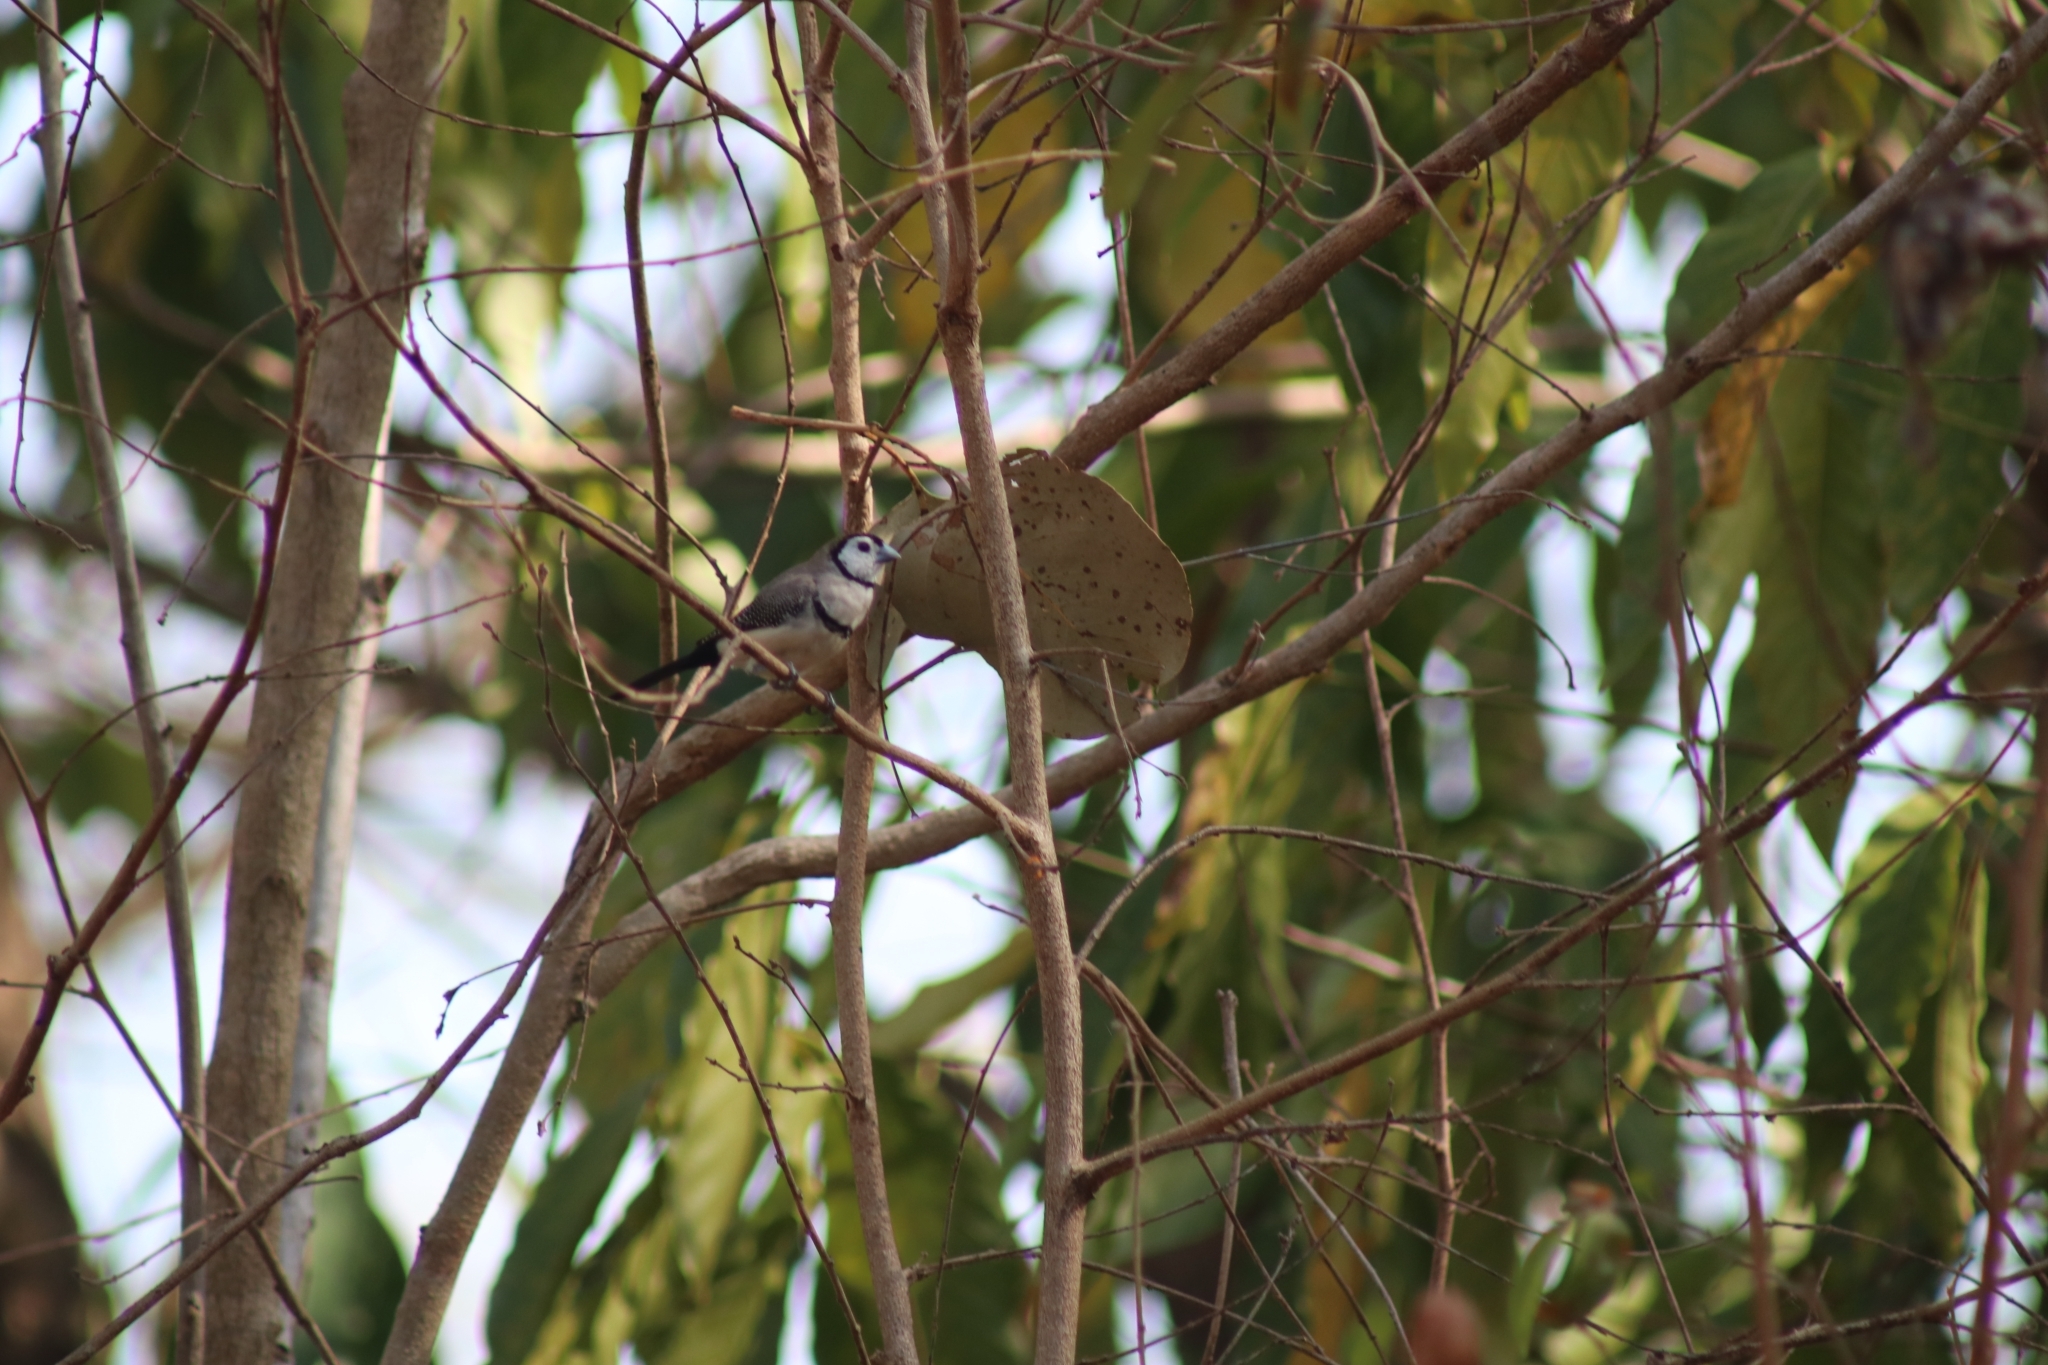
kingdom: Animalia
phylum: Chordata
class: Aves
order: Passeriformes
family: Estrildidae
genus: Taeniopygia
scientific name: Taeniopygia bichenovii
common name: Double-barred finch
